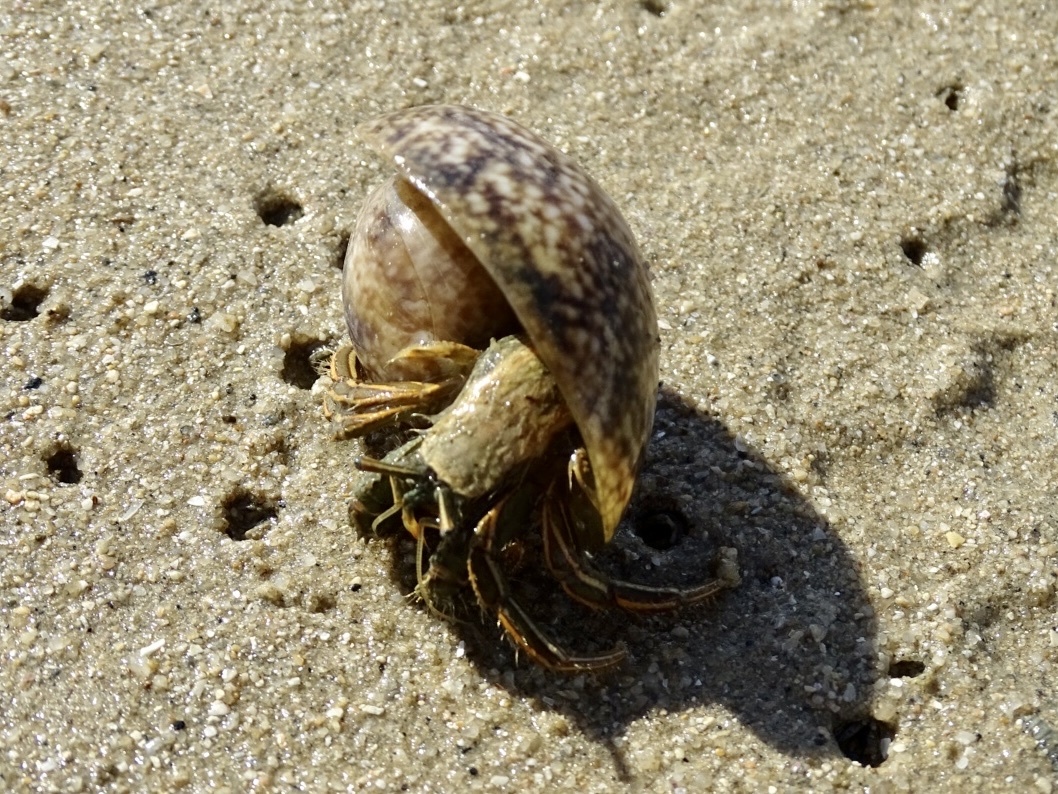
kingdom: Animalia
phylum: Arthropoda
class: Malacostraca
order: Decapoda
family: Diogenidae
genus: Clibanarius
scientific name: Clibanarius infraspinatus
